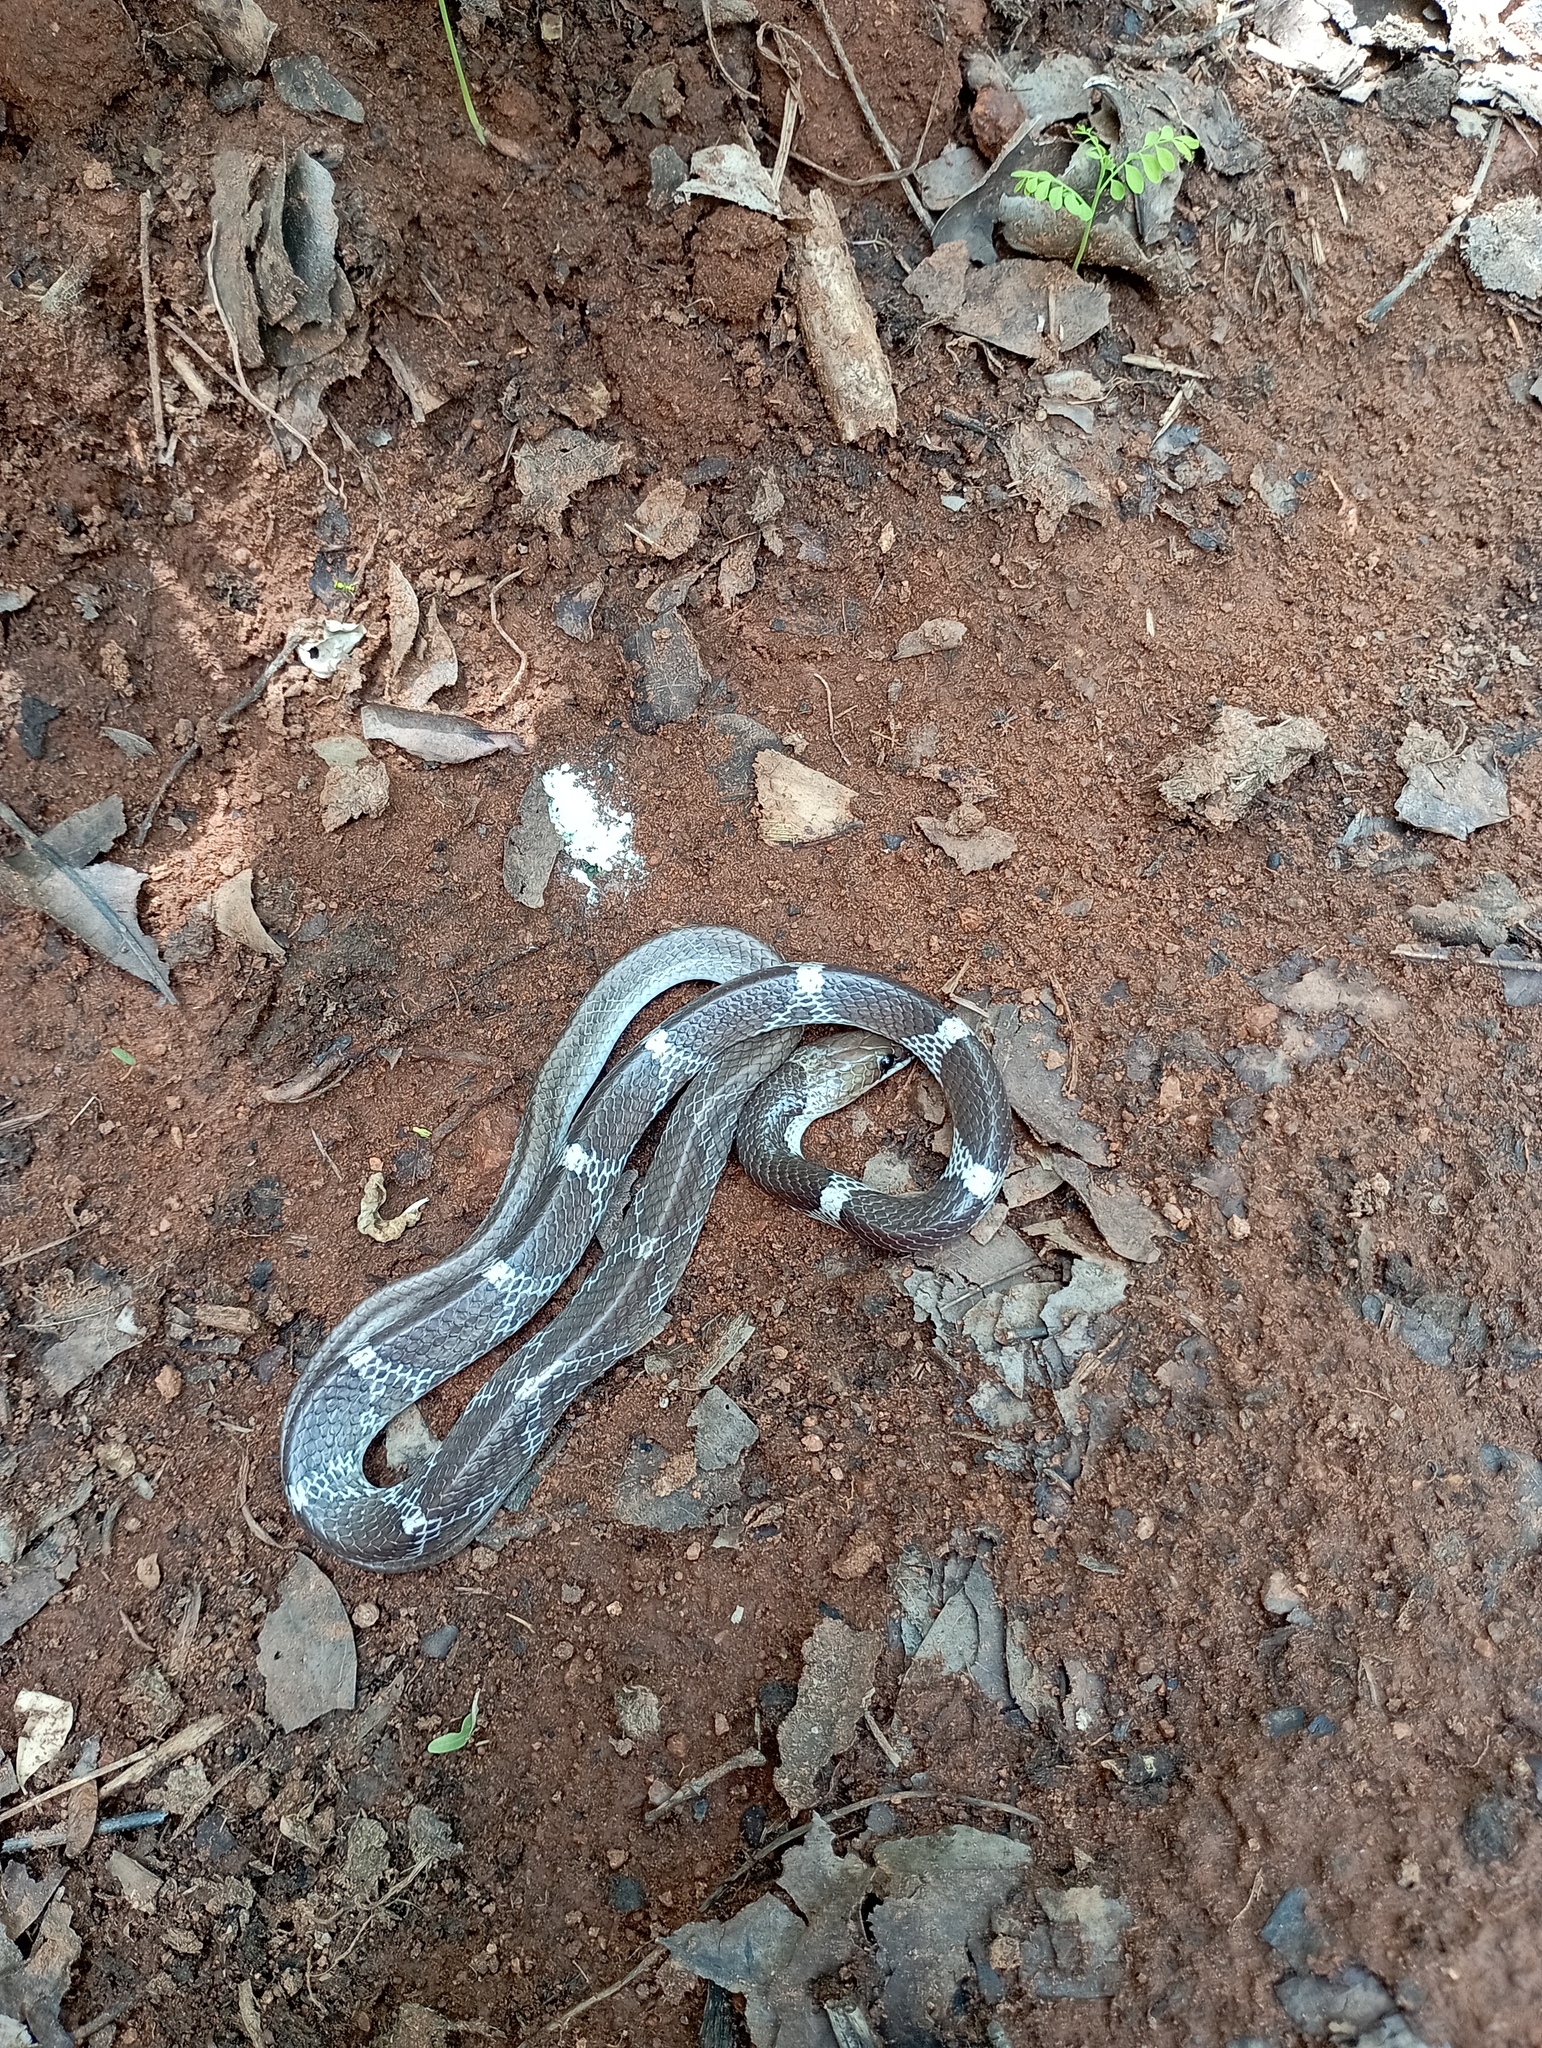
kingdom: Animalia
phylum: Chordata
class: Squamata
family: Colubridae
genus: Lycodon
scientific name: Lycodon aulicus
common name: Common wolf snake
